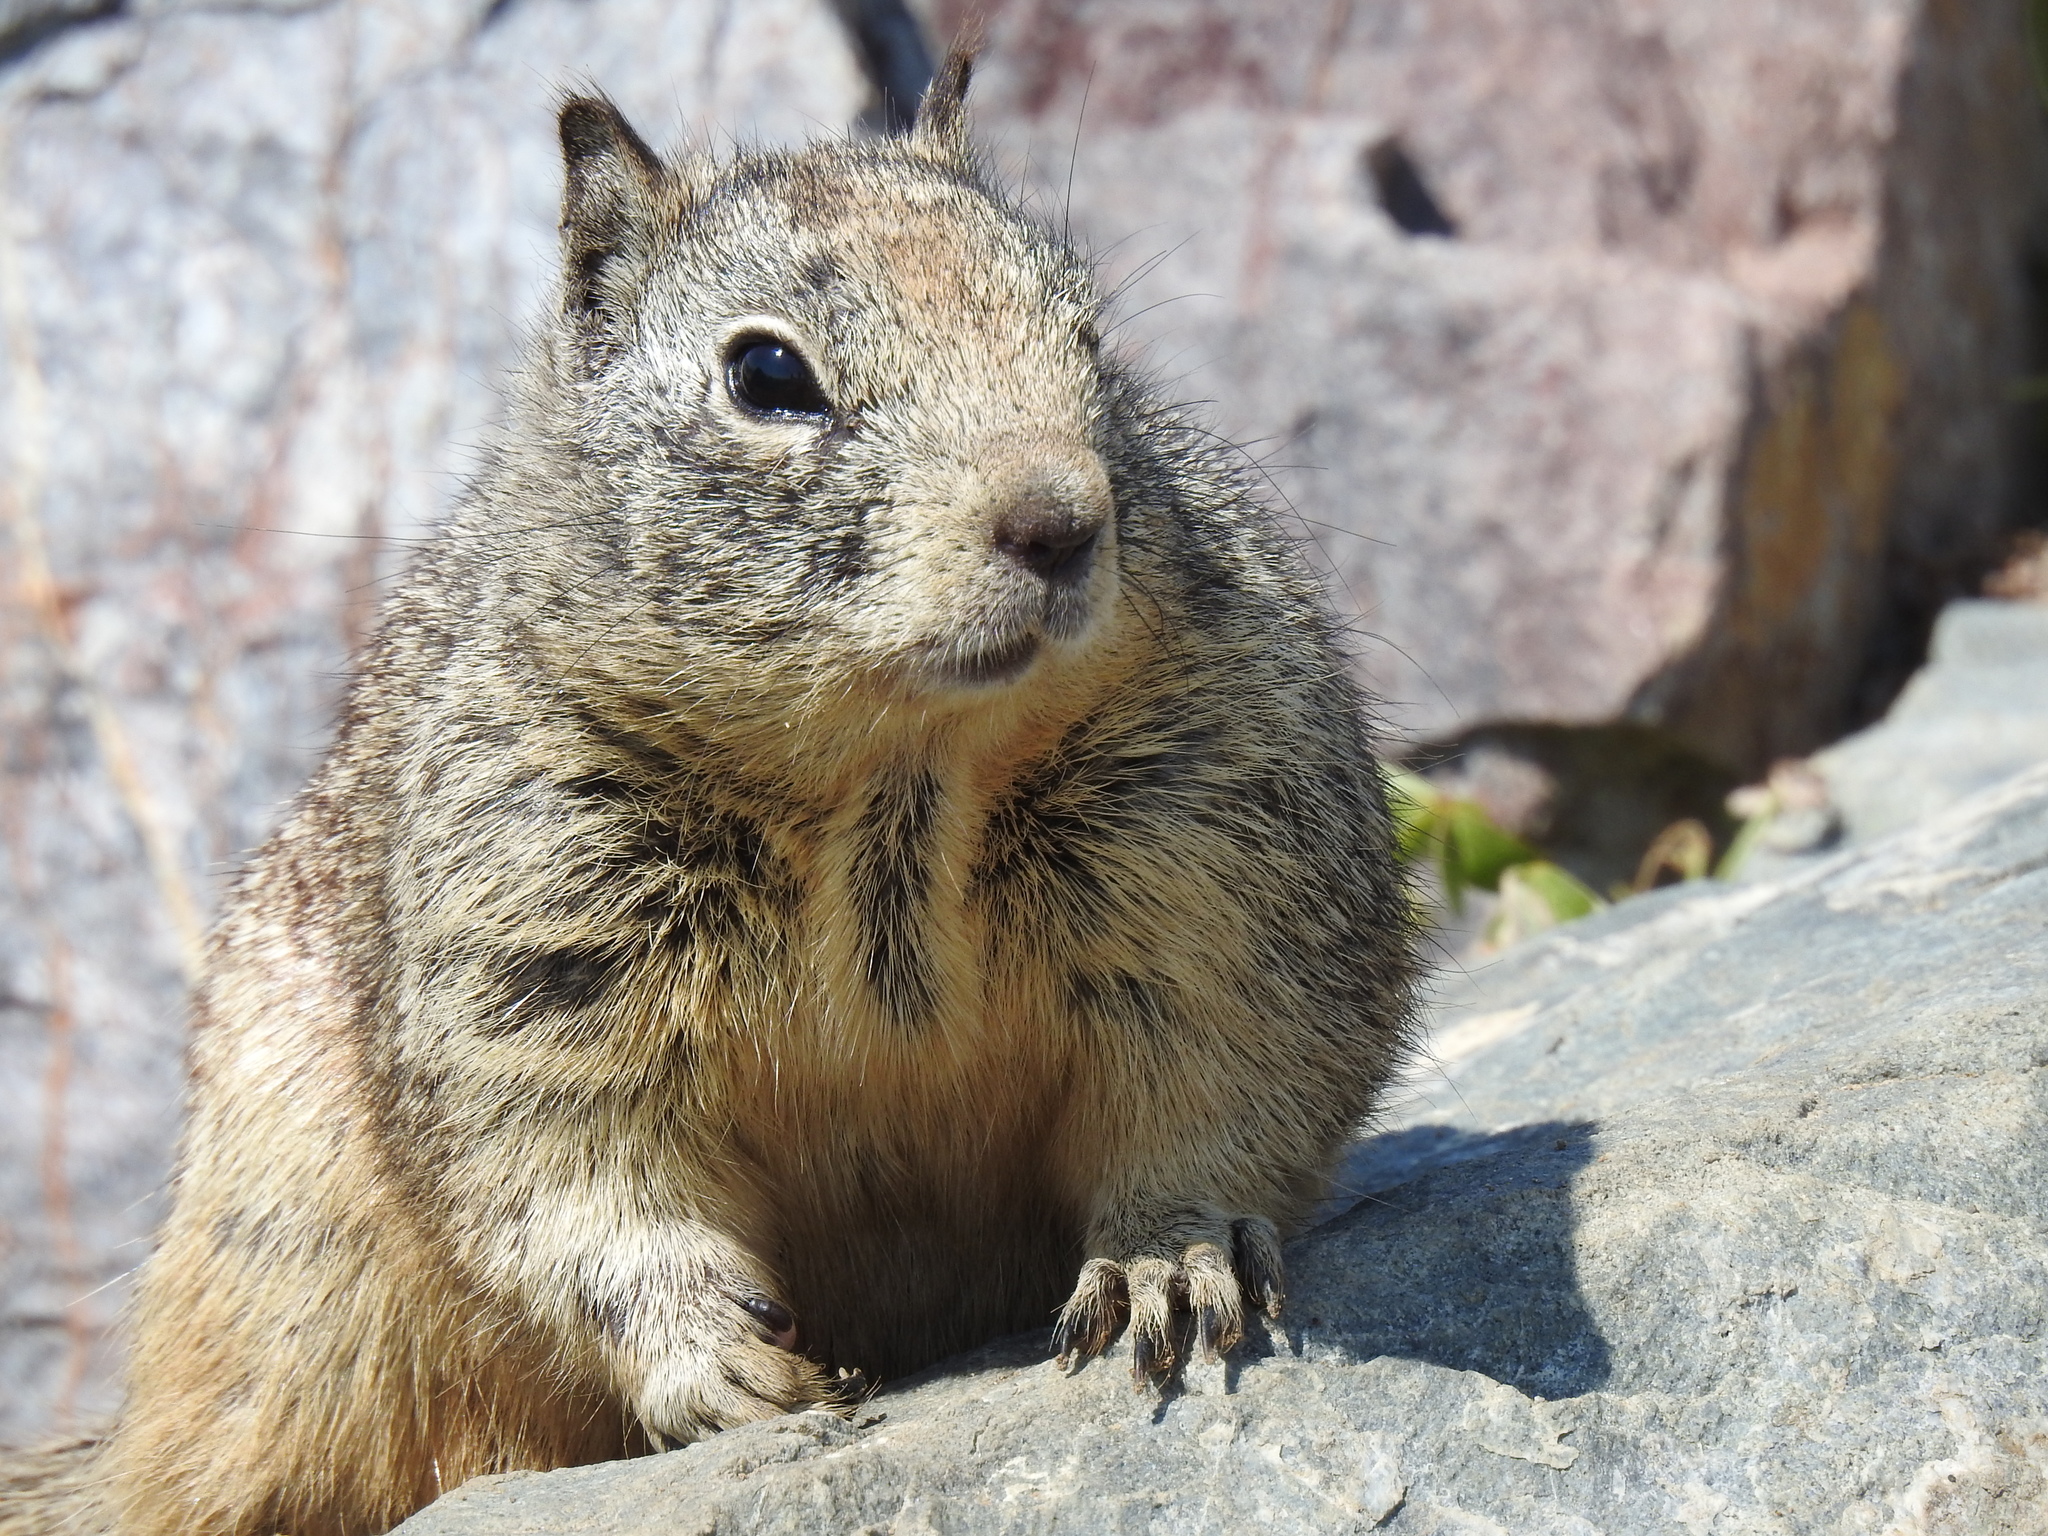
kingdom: Animalia
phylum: Chordata
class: Mammalia
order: Rodentia
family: Sciuridae
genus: Otospermophilus
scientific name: Otospermophilus beecheyi
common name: California ground squirrel
